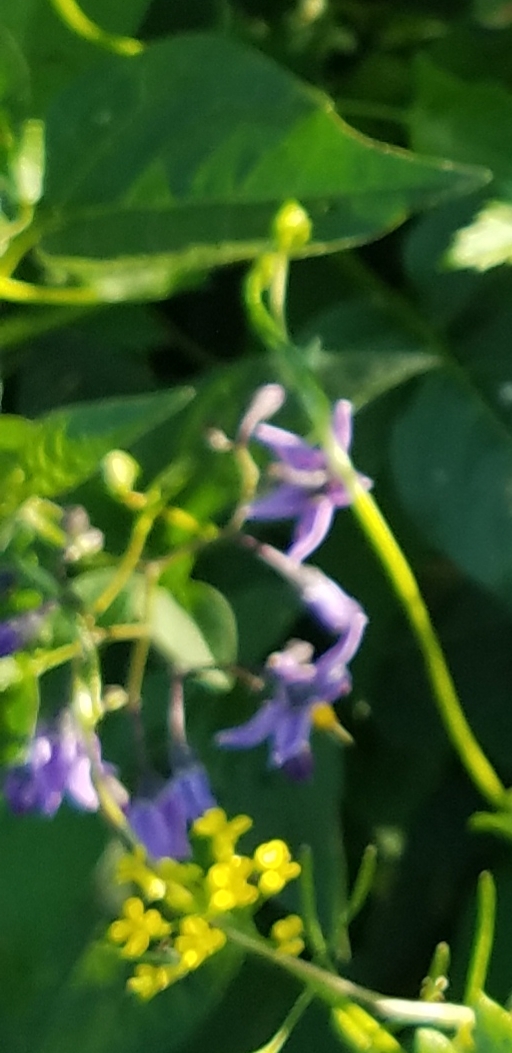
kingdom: Plantae
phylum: Tracheophyta
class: Magnoliopsida
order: Solanales
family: Solanaceae
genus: Solanum
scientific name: Solanum dulcamara
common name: Climbing nightshade
